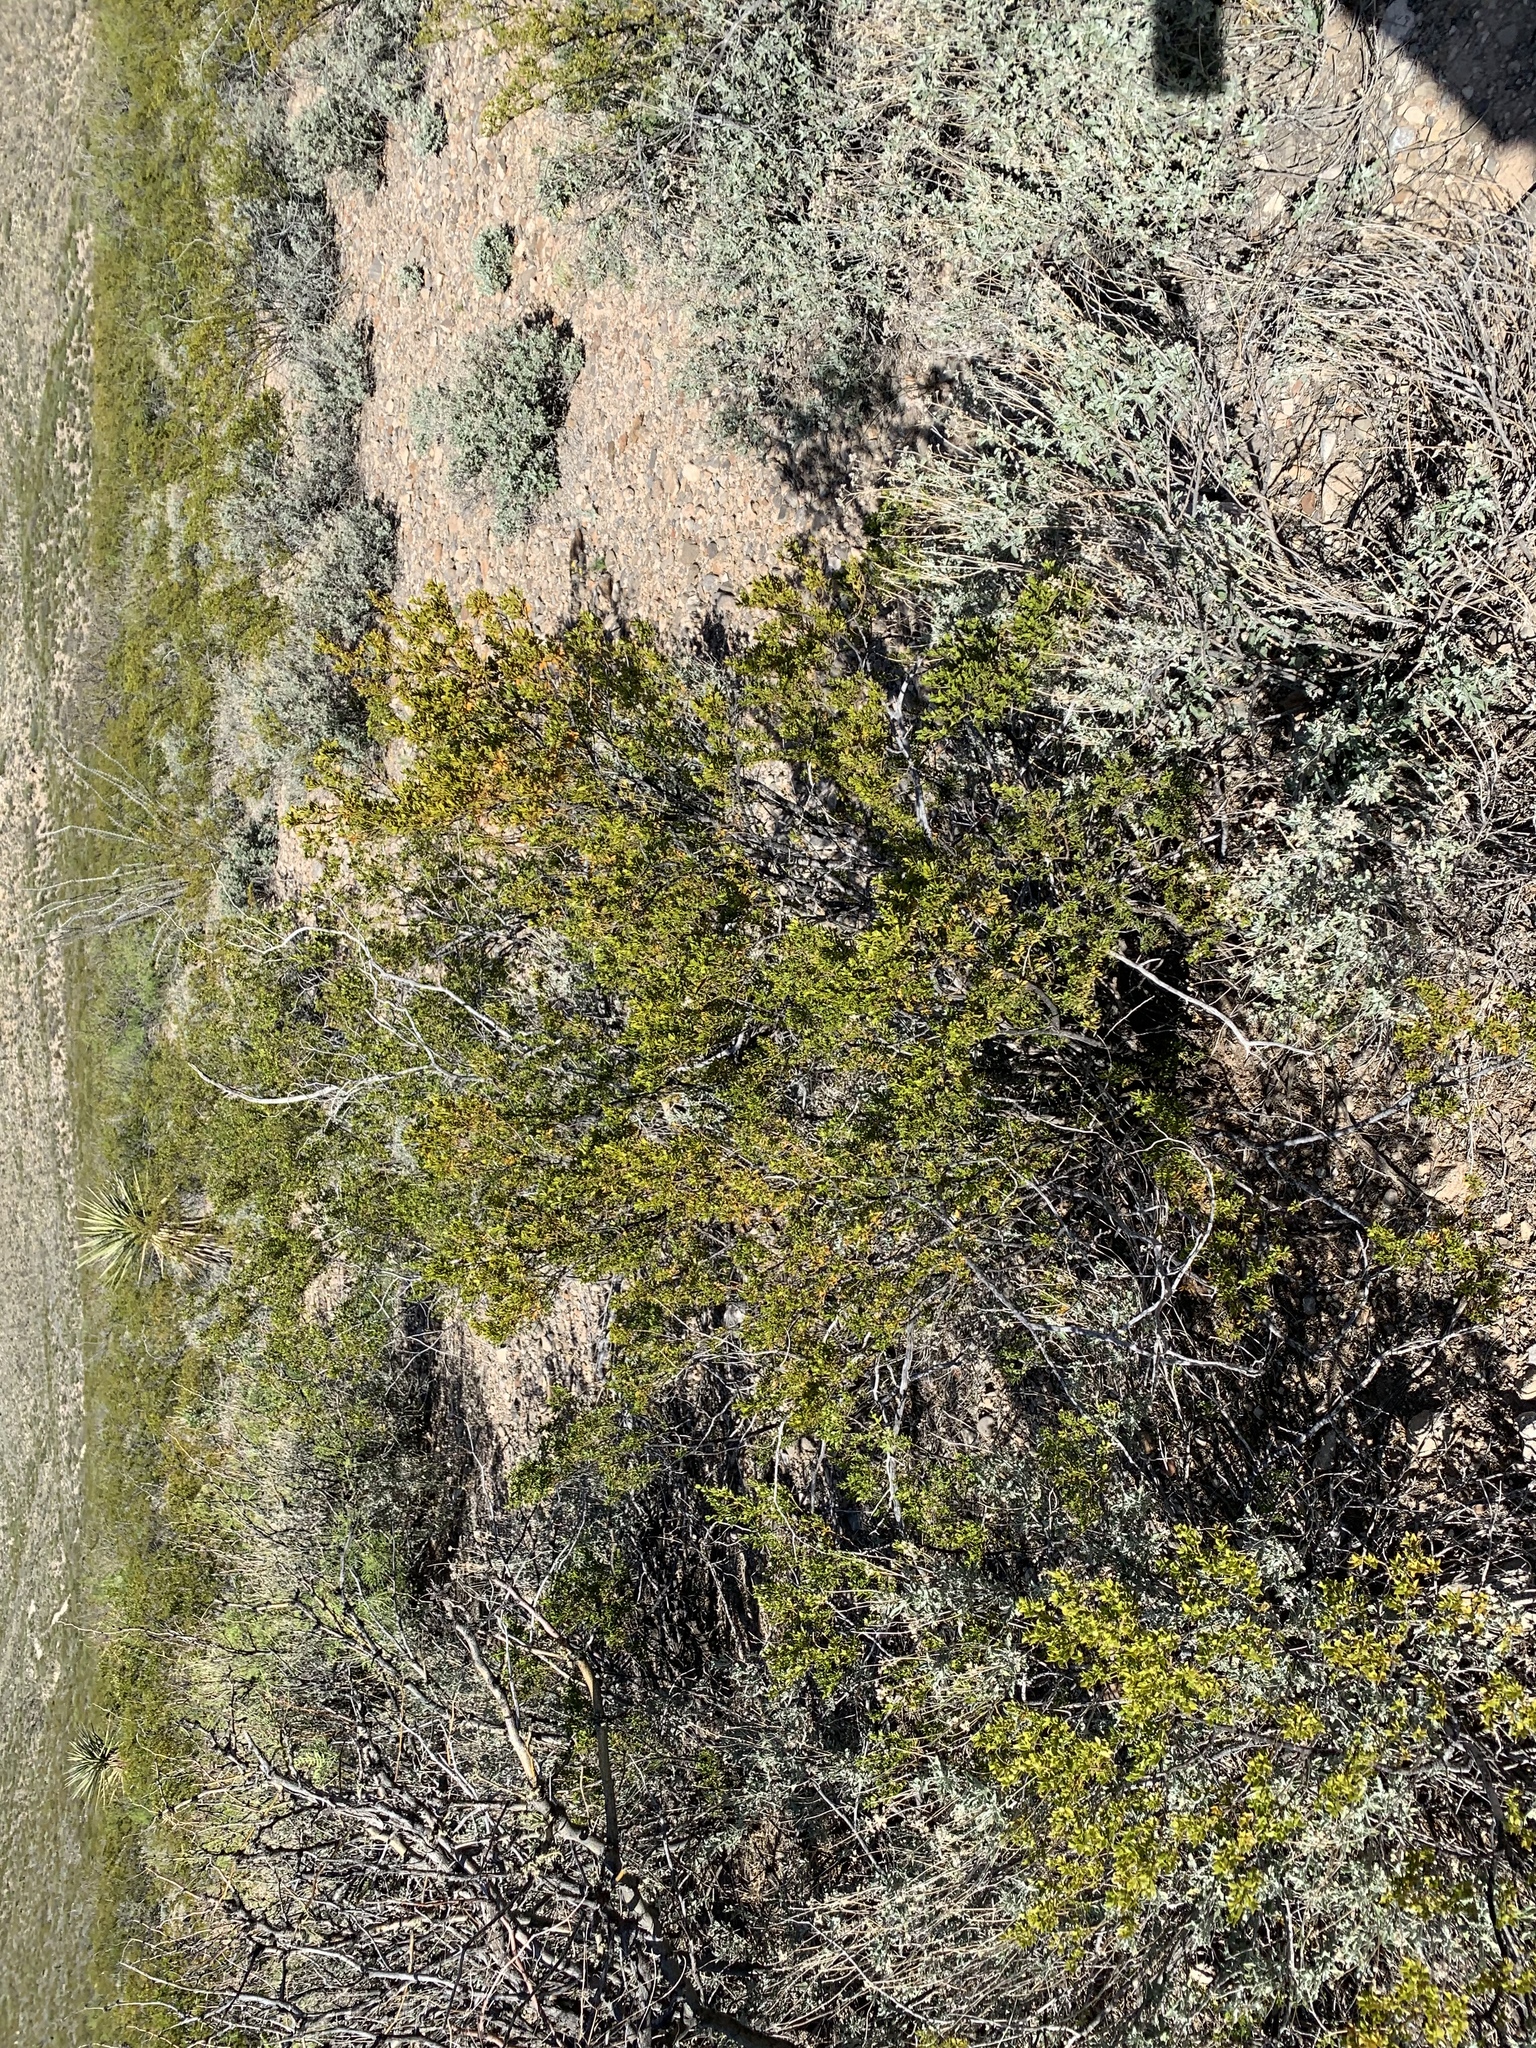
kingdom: Plantae
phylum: Tracheophyta
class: Magnoliopsida
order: Zygophyllales
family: Zygophyllaceae
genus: Larrea
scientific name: Larrea tridentata
